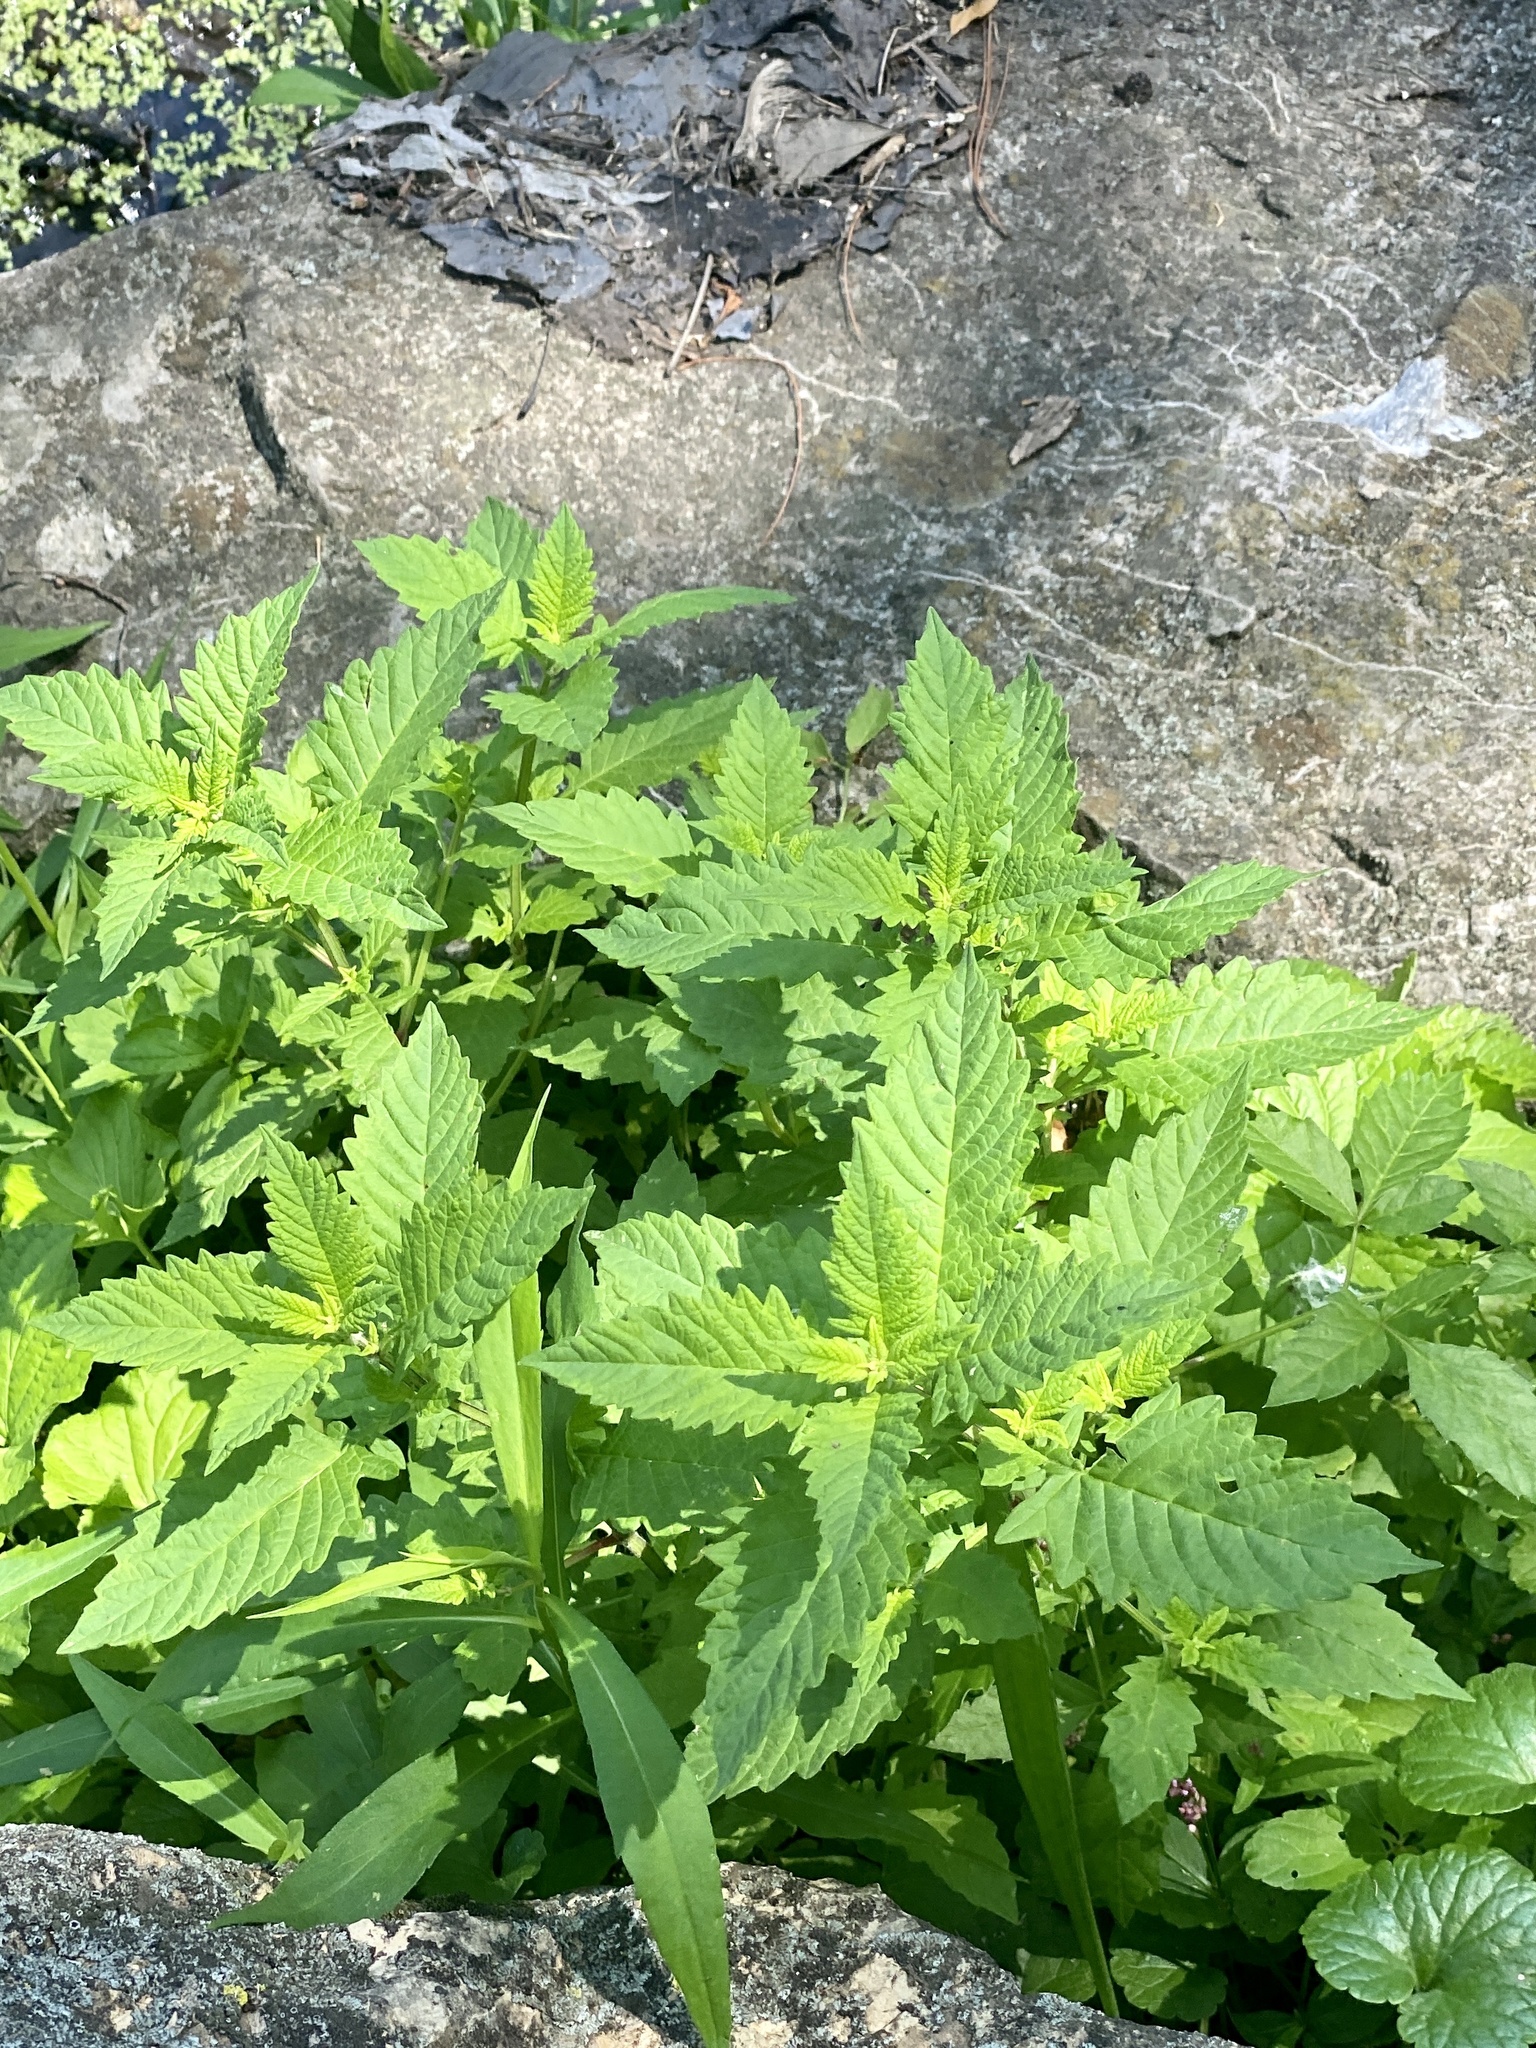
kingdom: Plantae
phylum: Tracheophyta
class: Magnoliopsida
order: Lamiales
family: Lamiaceae
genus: Lycopus
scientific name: Lycopus europaeus
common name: European bugleweed
